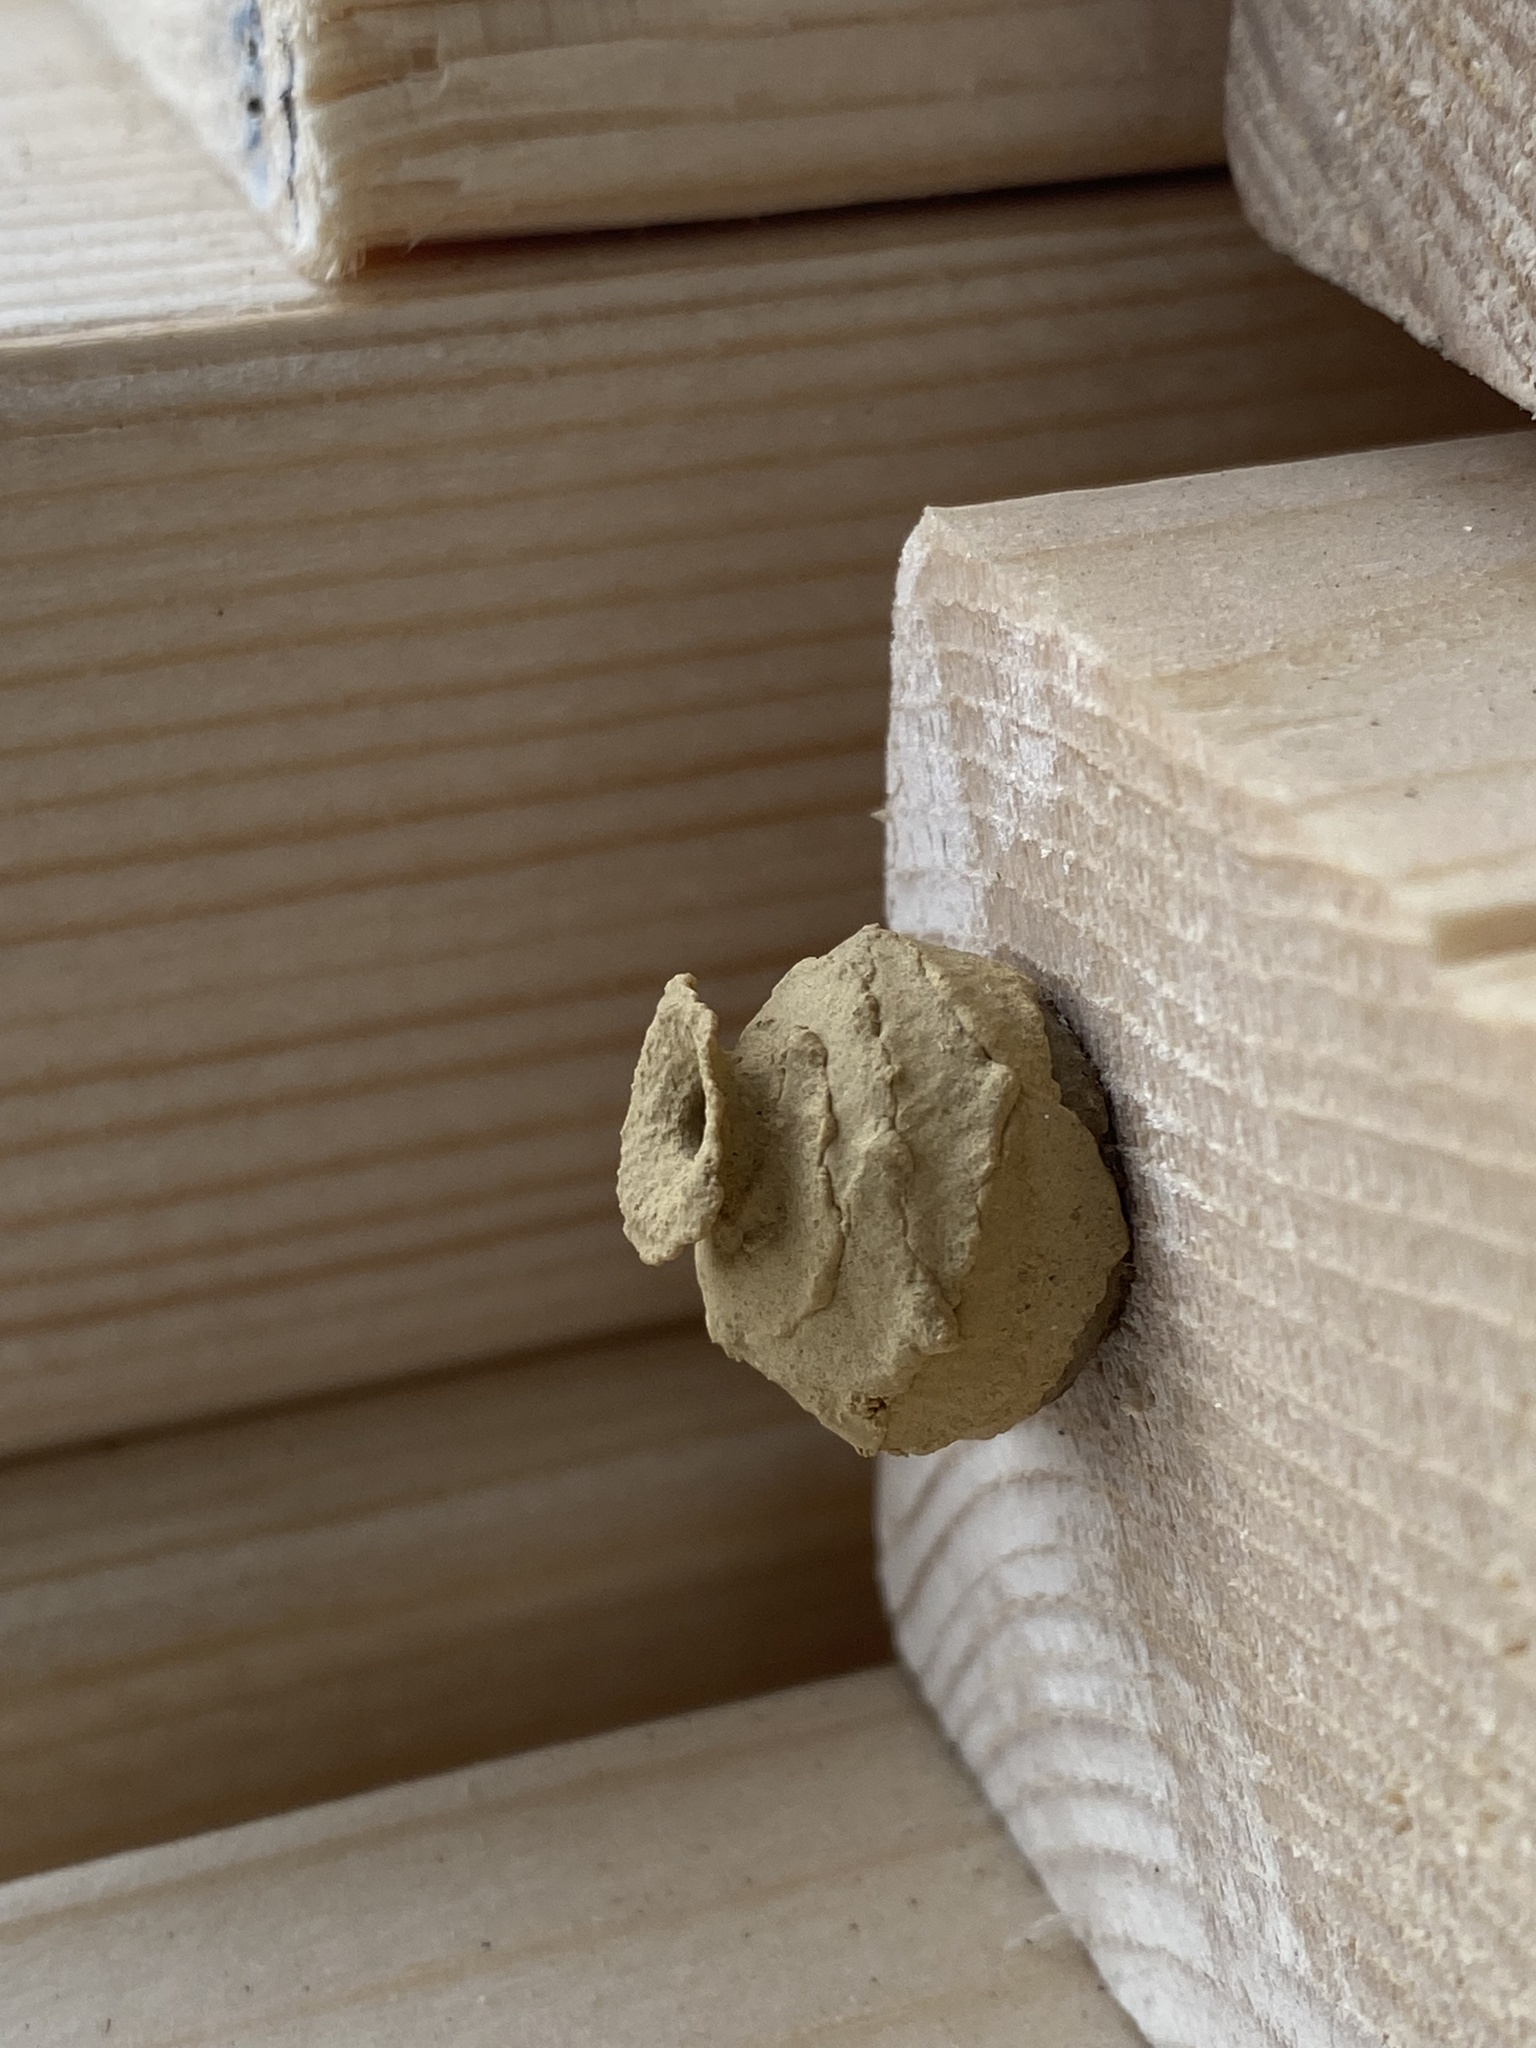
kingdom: Animalia
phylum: Arthropoda
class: Insecta
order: Hymenoptera
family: Vespidae
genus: Eumenes
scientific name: Eumenes
